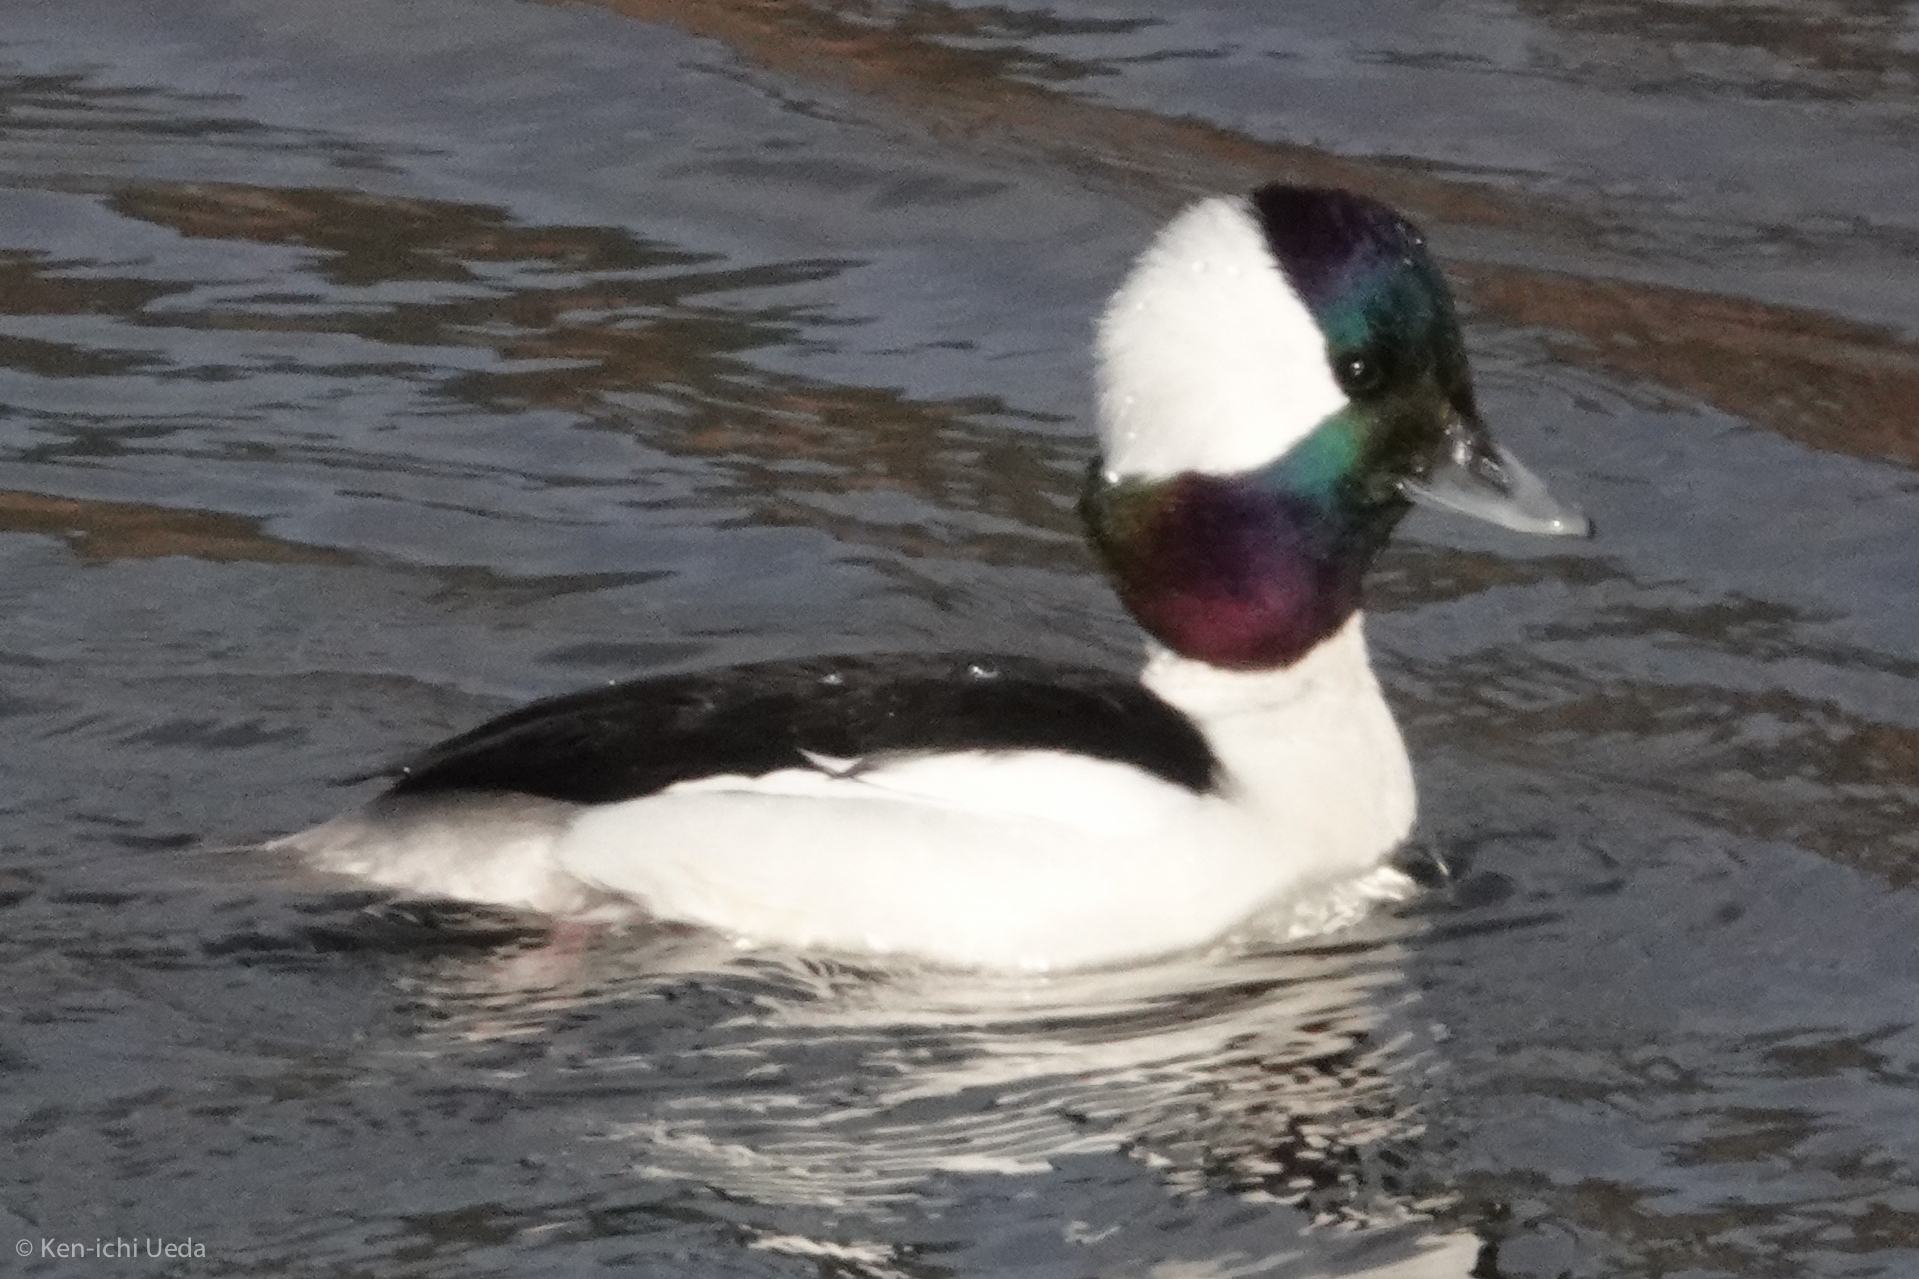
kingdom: Animalia
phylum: Chordata
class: Aves
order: Anseriformes
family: Anatidae
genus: Bucephala
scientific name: Bucephala albeola
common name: Bufflehead
